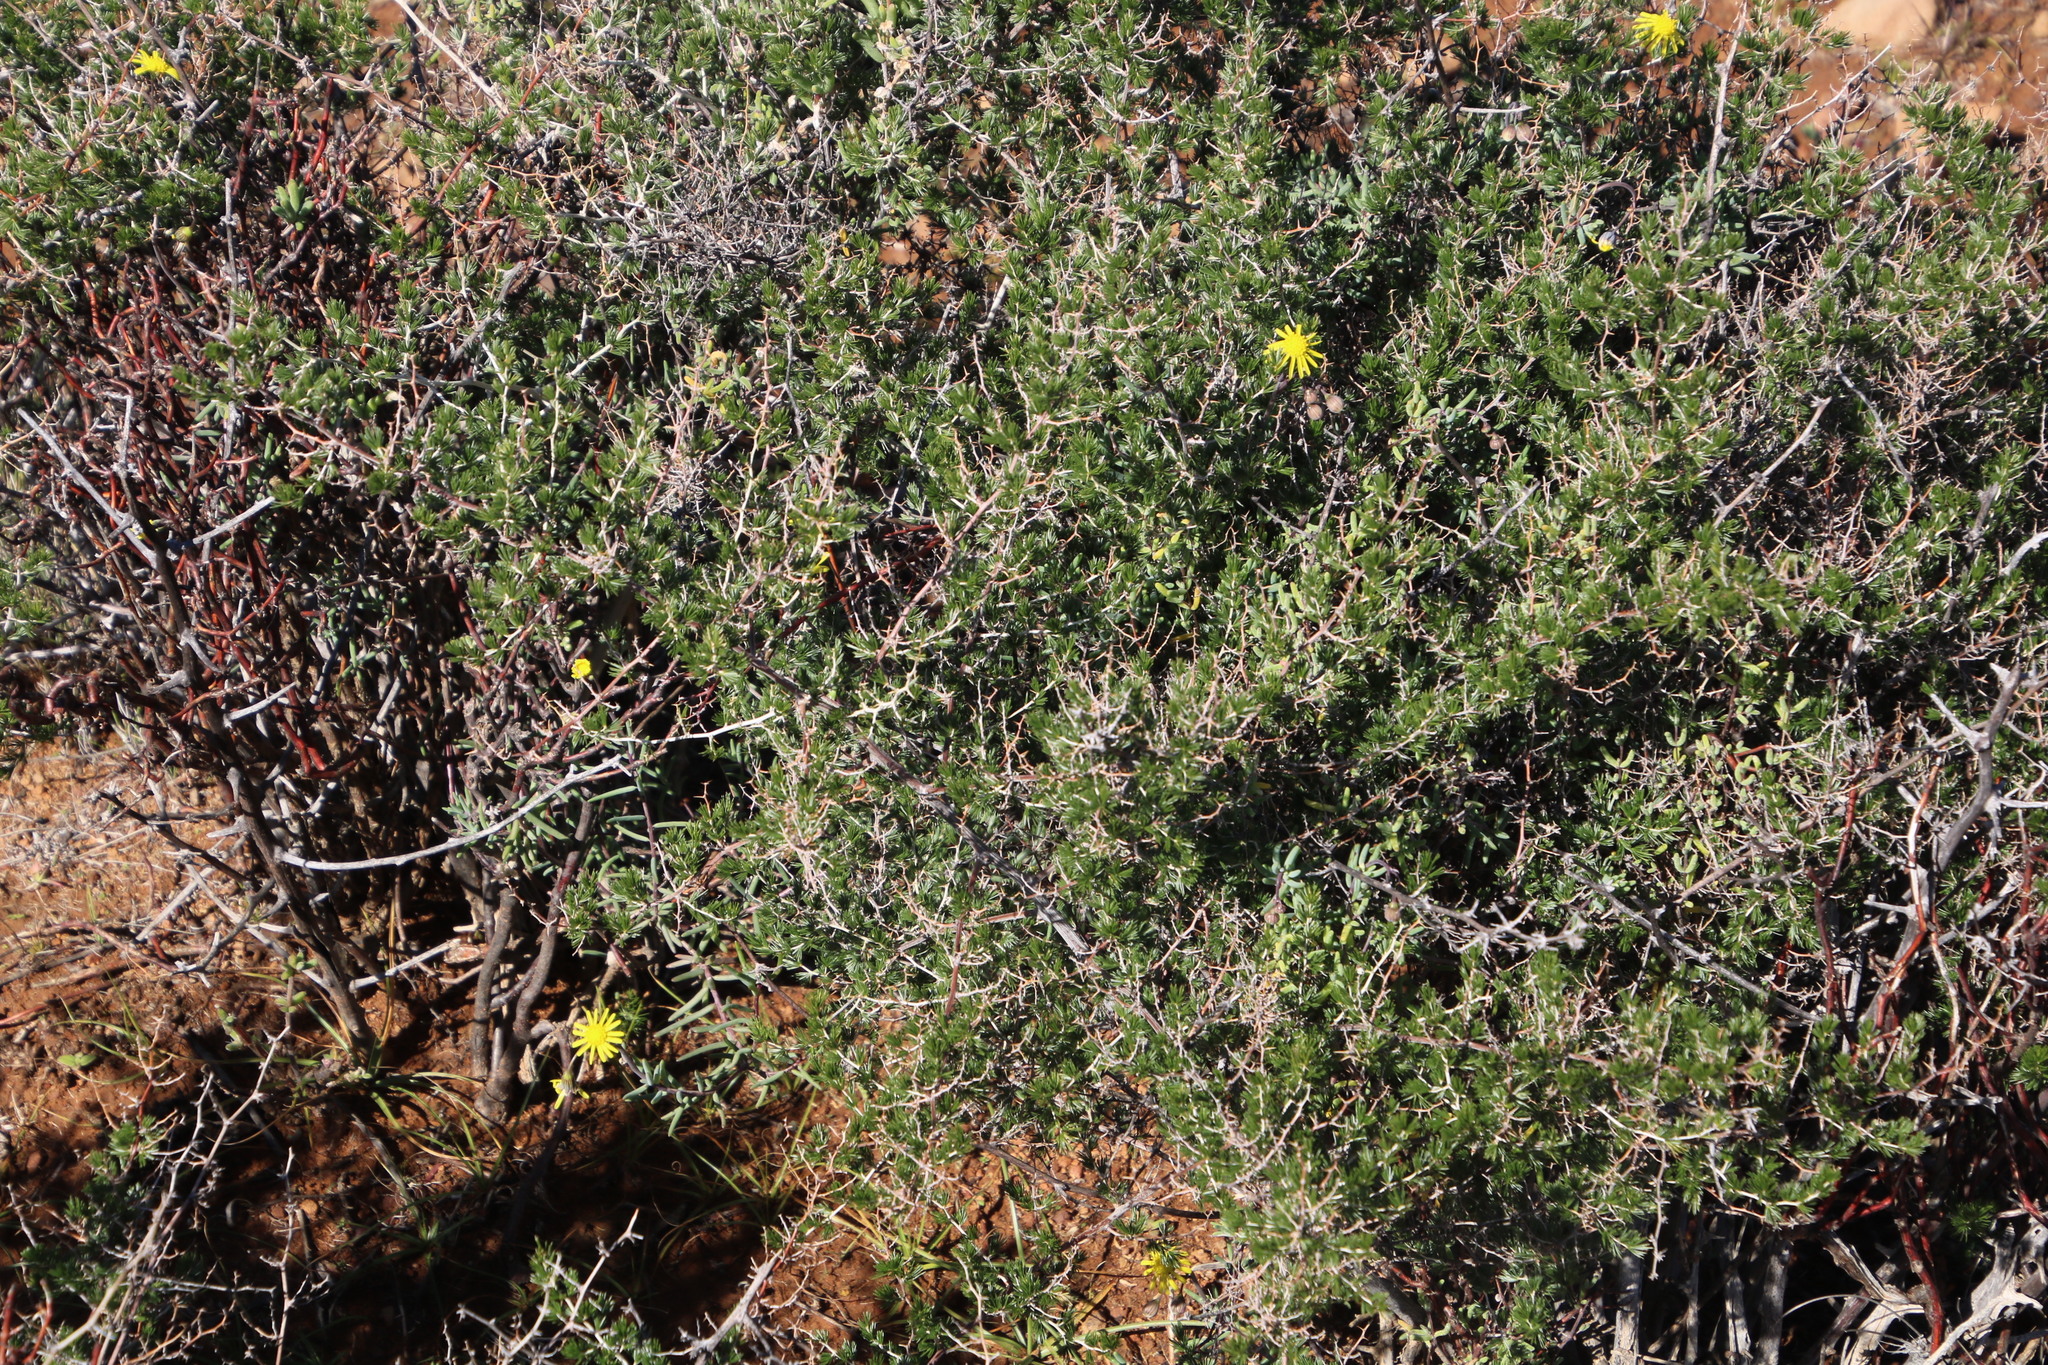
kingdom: Plantae
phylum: Tracheophyta
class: Magnoliopsida
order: Asterales
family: Asteraceae
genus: Crassothonna
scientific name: Crassothonna protecta
